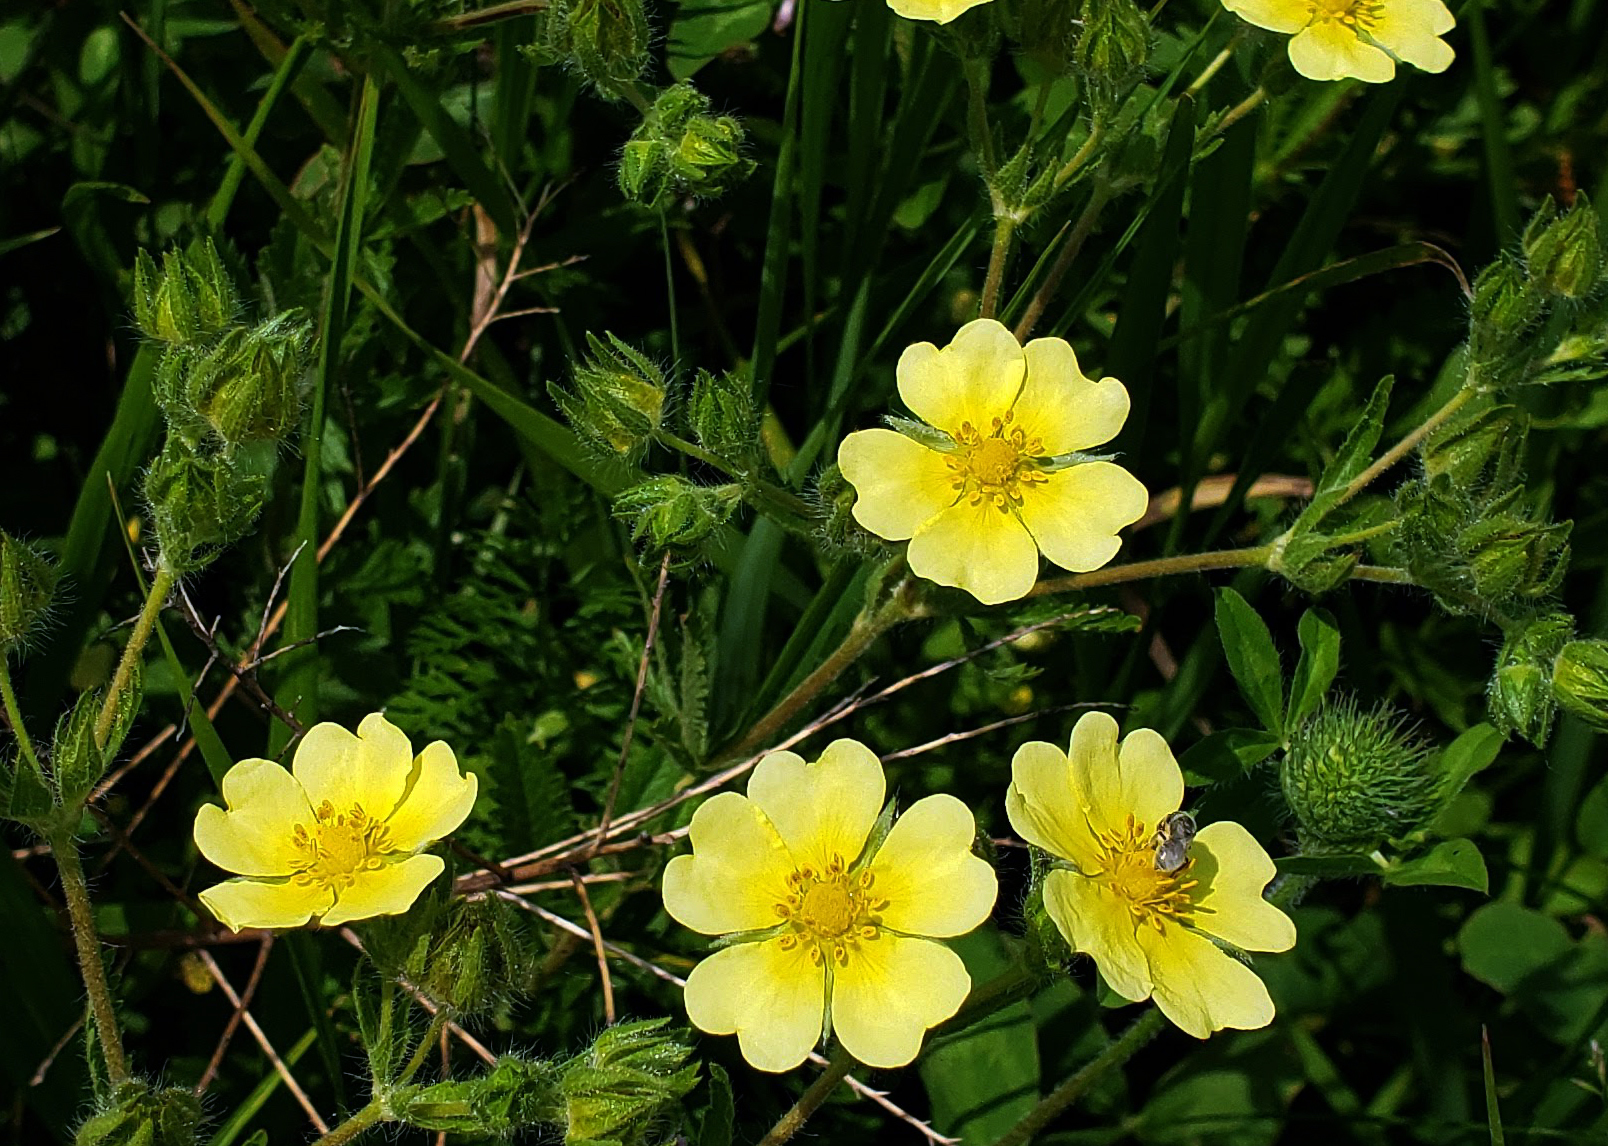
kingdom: Plantae
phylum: Tracheophyta
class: Magnoliopsida
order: Rosales
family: Rosaceae
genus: Potentilla
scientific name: Potentilla recta
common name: Sulphur cinquefoil
